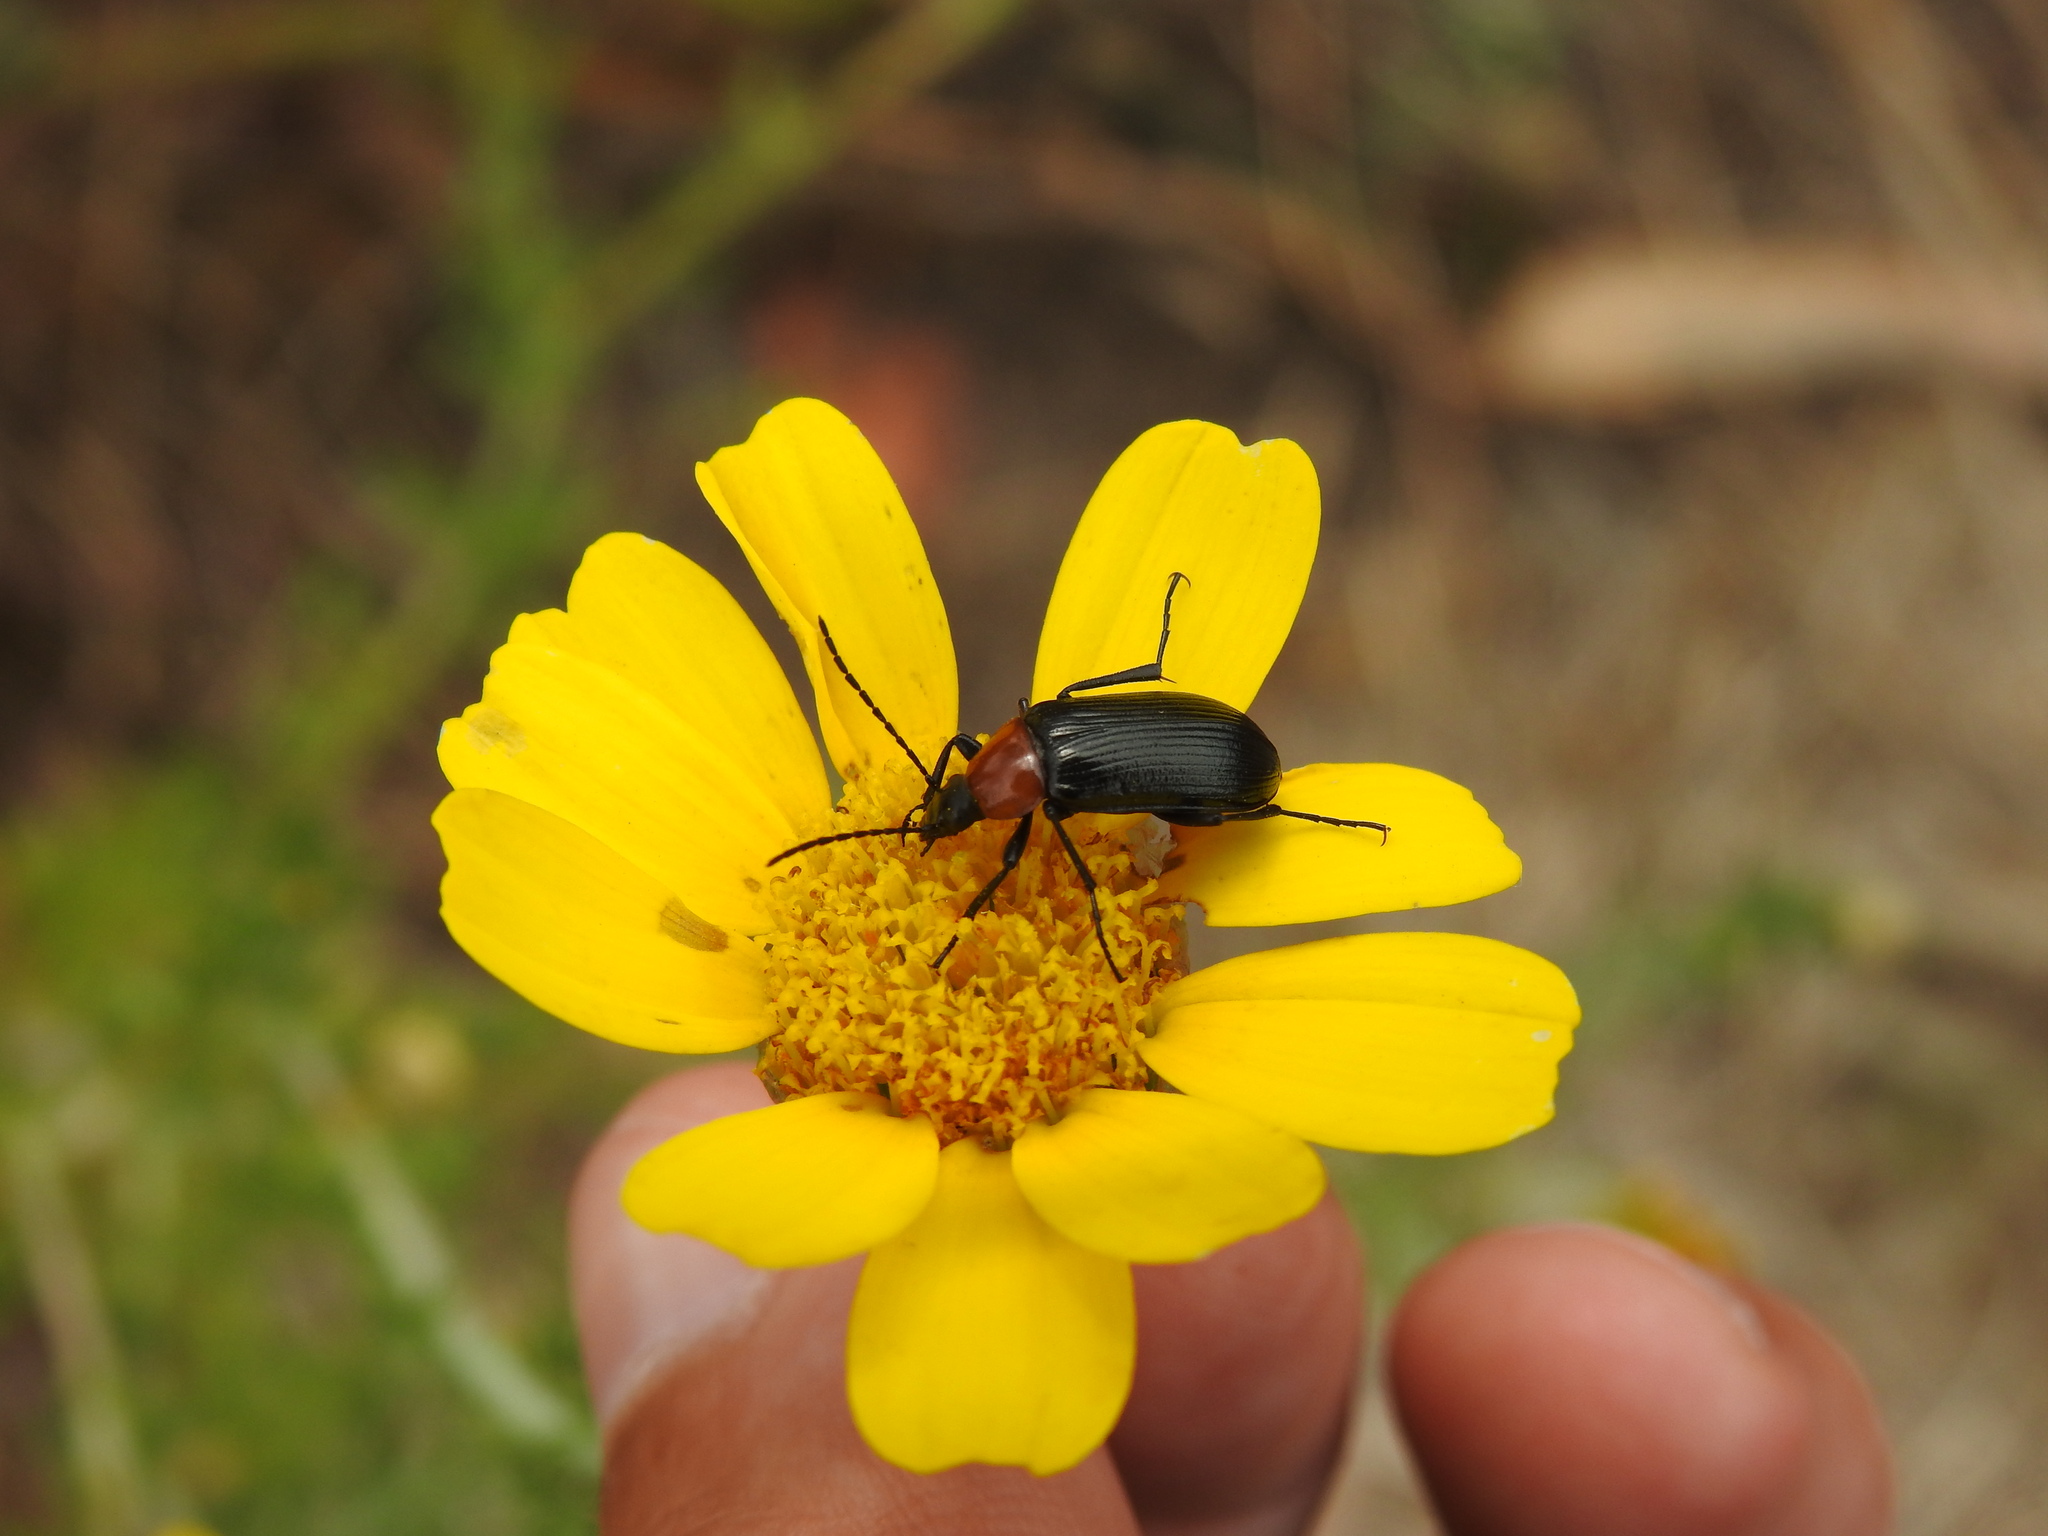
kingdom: Animalia
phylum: Arthropoda
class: Insecta
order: Coleoptera
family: Tenebrionidae
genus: Heliotaurus
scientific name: Heliotaurus ruficollis
